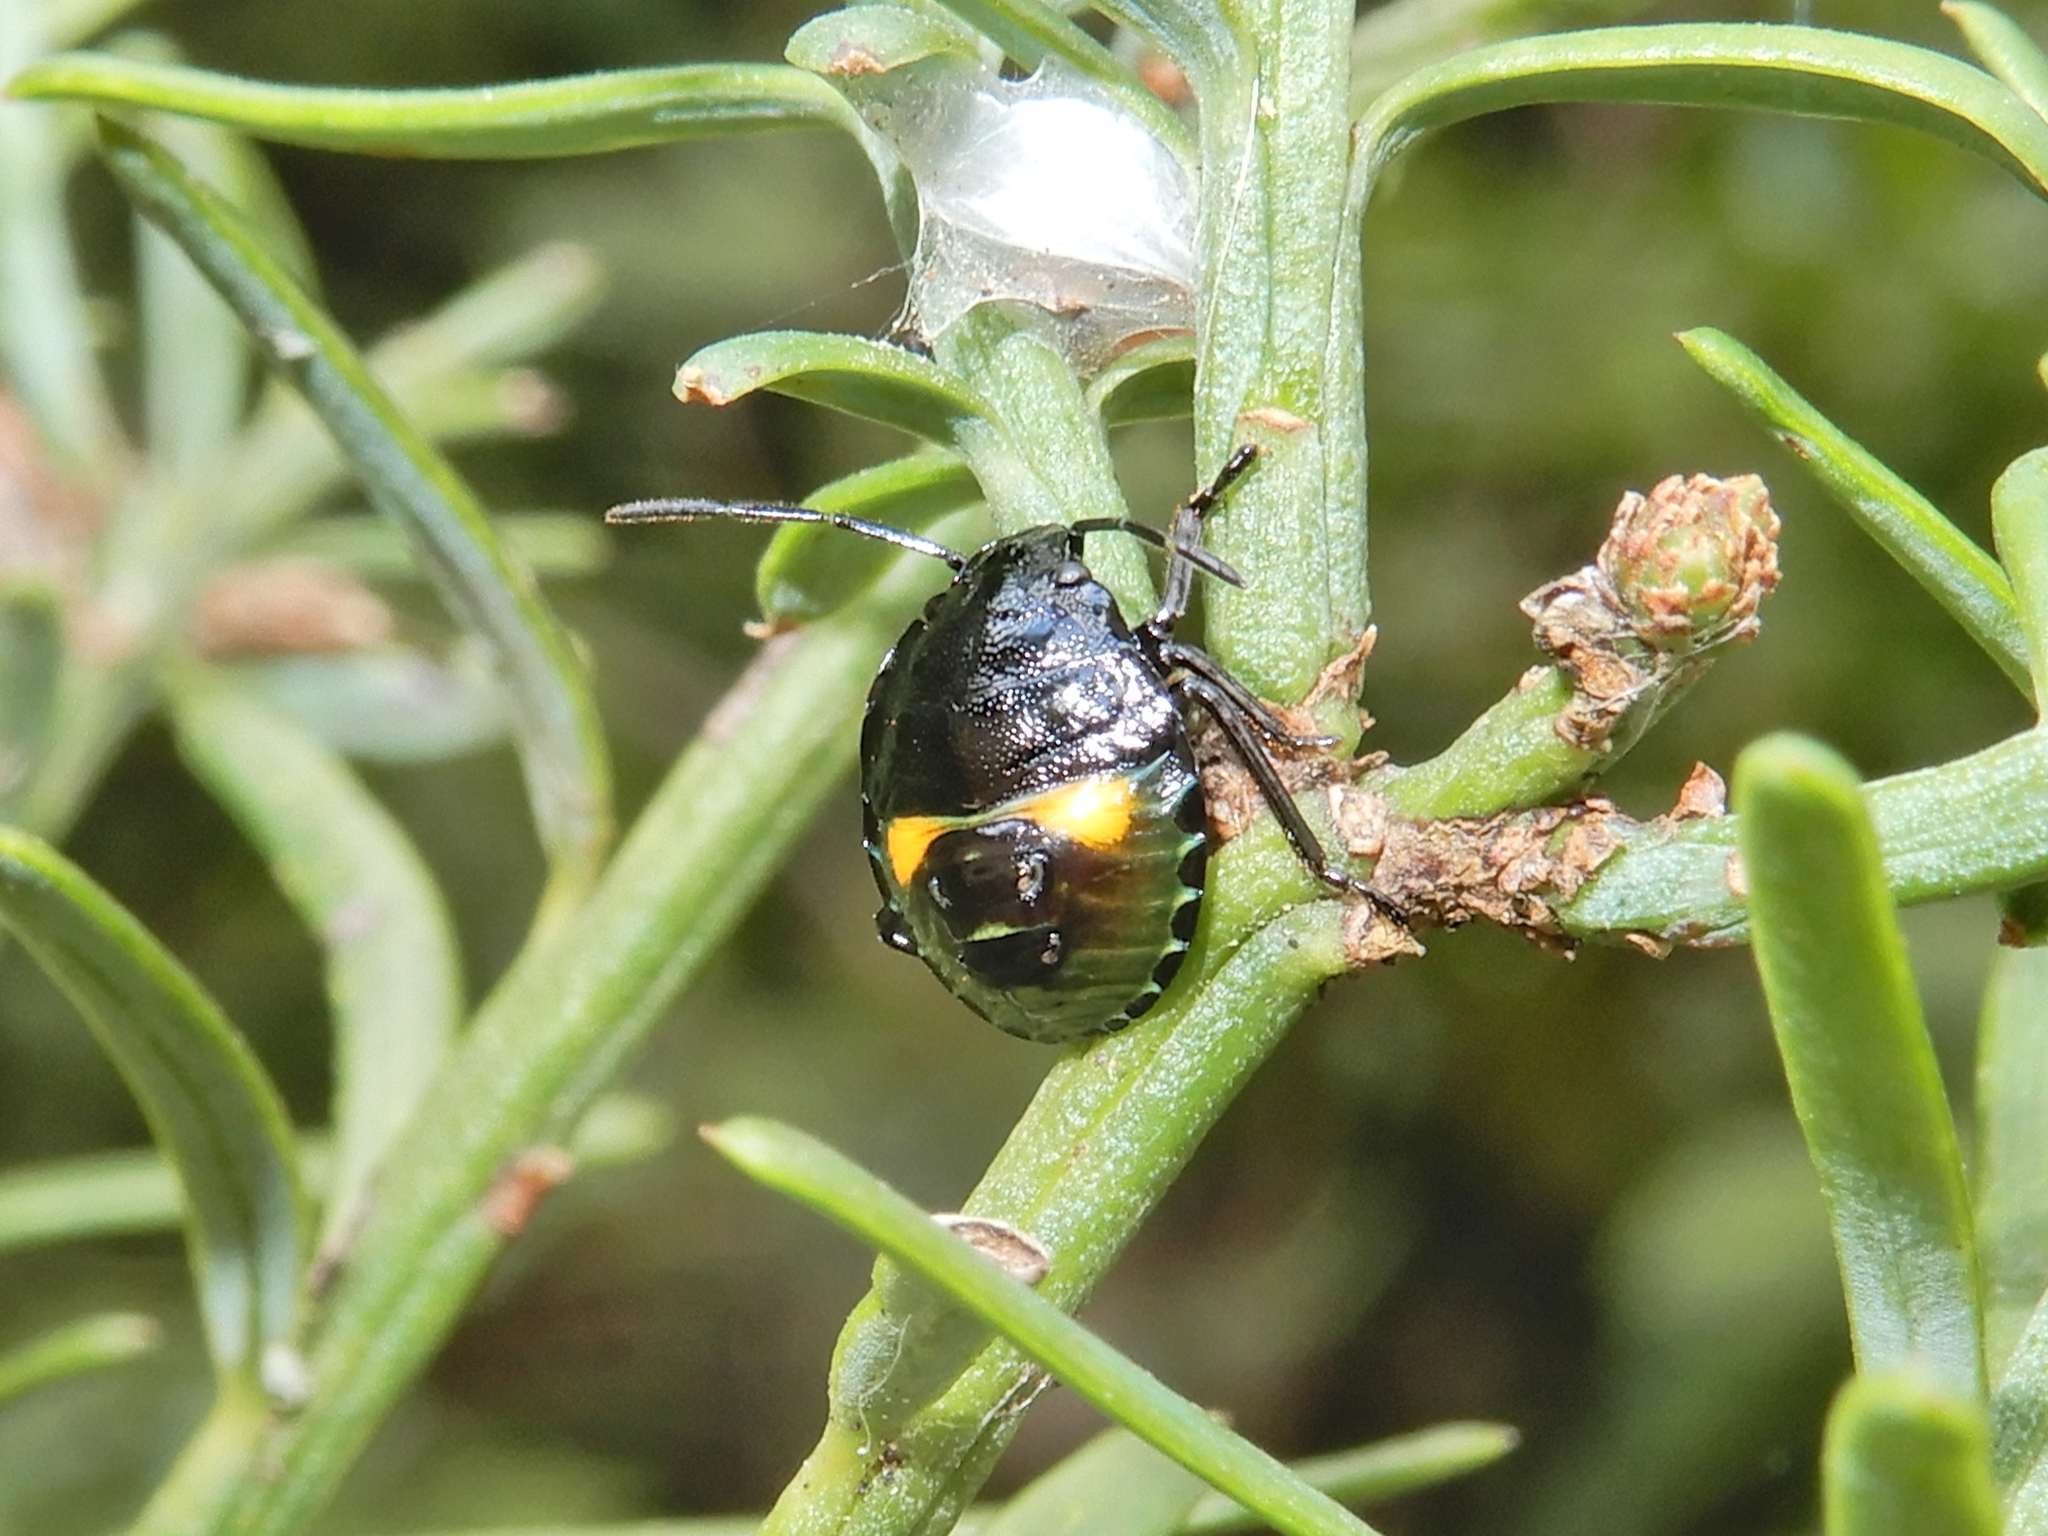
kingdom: Animalia
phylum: Arthropoda
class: Insecta
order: Hemiptera
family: Pentatomidae
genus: Glaucias
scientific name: Glaucias amyota
